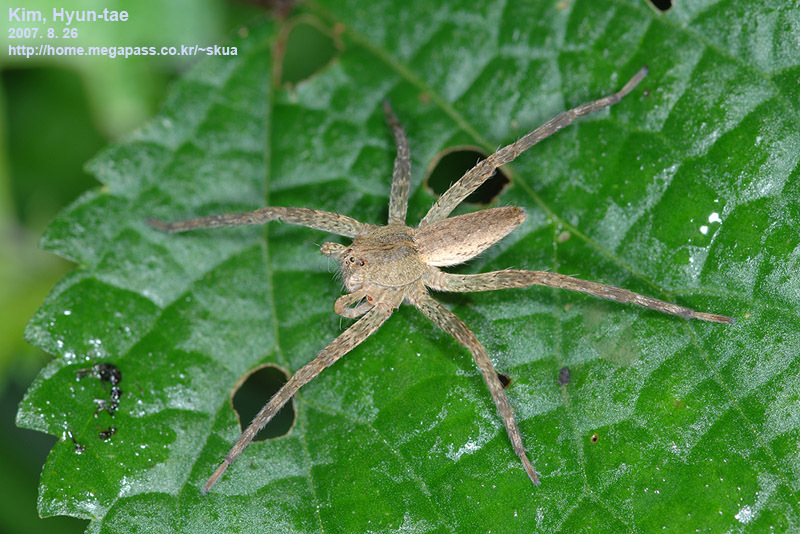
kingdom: Animalia
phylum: Arthropoda
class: Arachnida
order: Araneae
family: Pisauridae
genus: Dolomedes
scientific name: Dolomedes sulfureus
